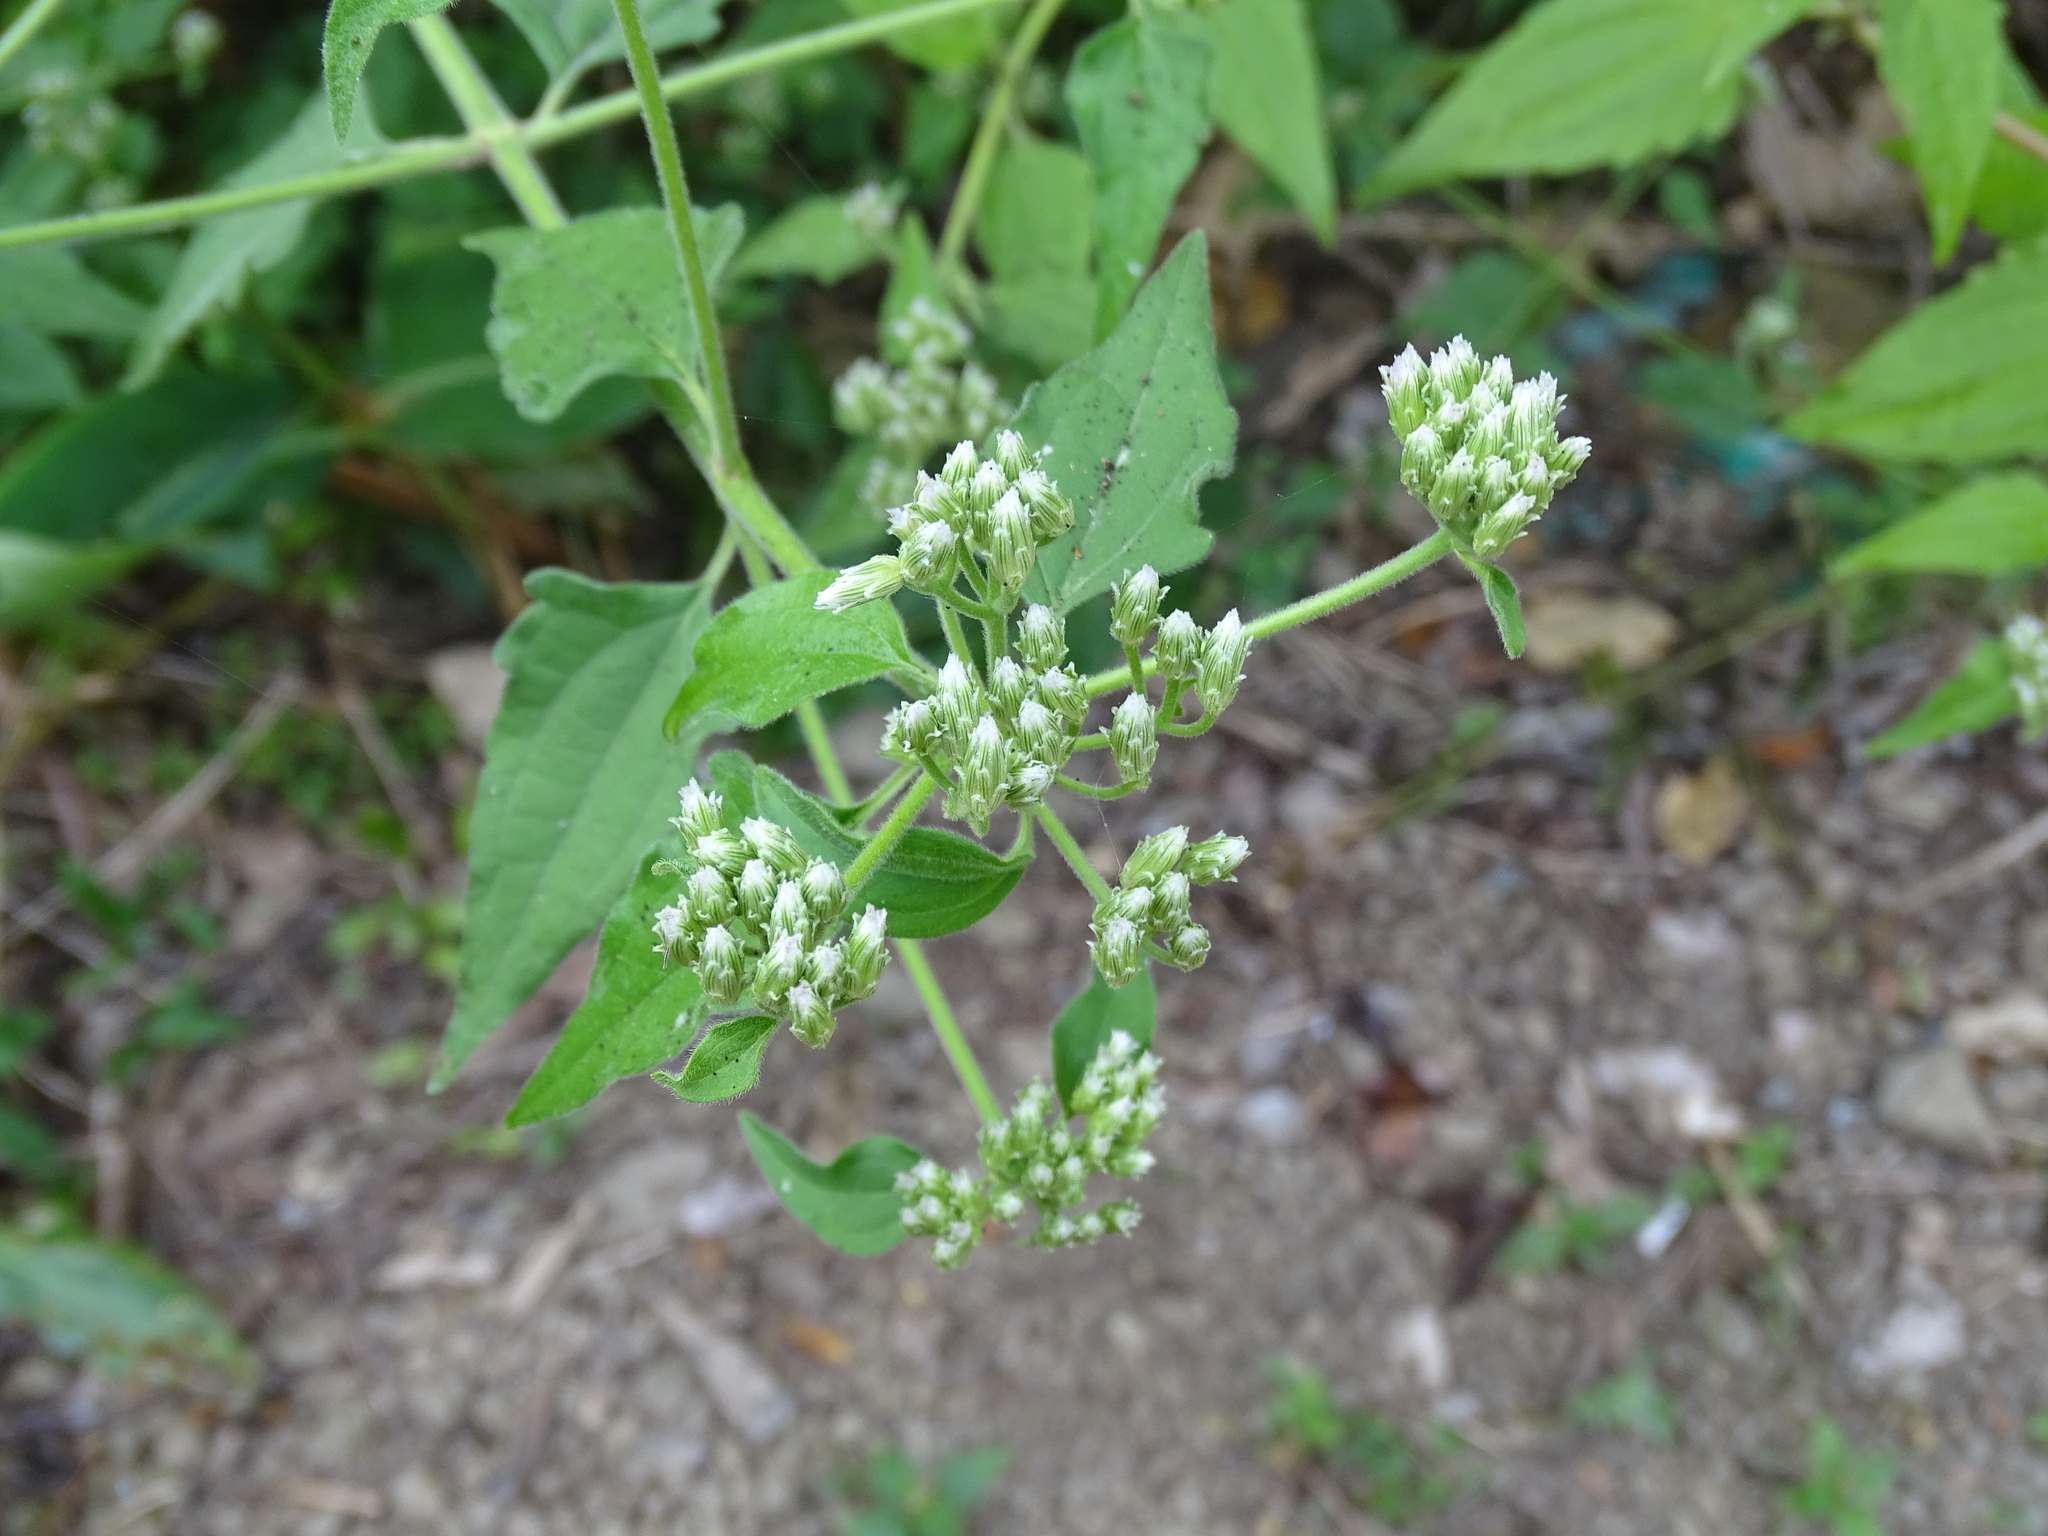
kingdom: Plantae
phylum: Tracheophyta
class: Magnoliopsida
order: Asterales
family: Asteraceae
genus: Chromolaena
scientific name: Chromolaena odorata
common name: Siamweed
